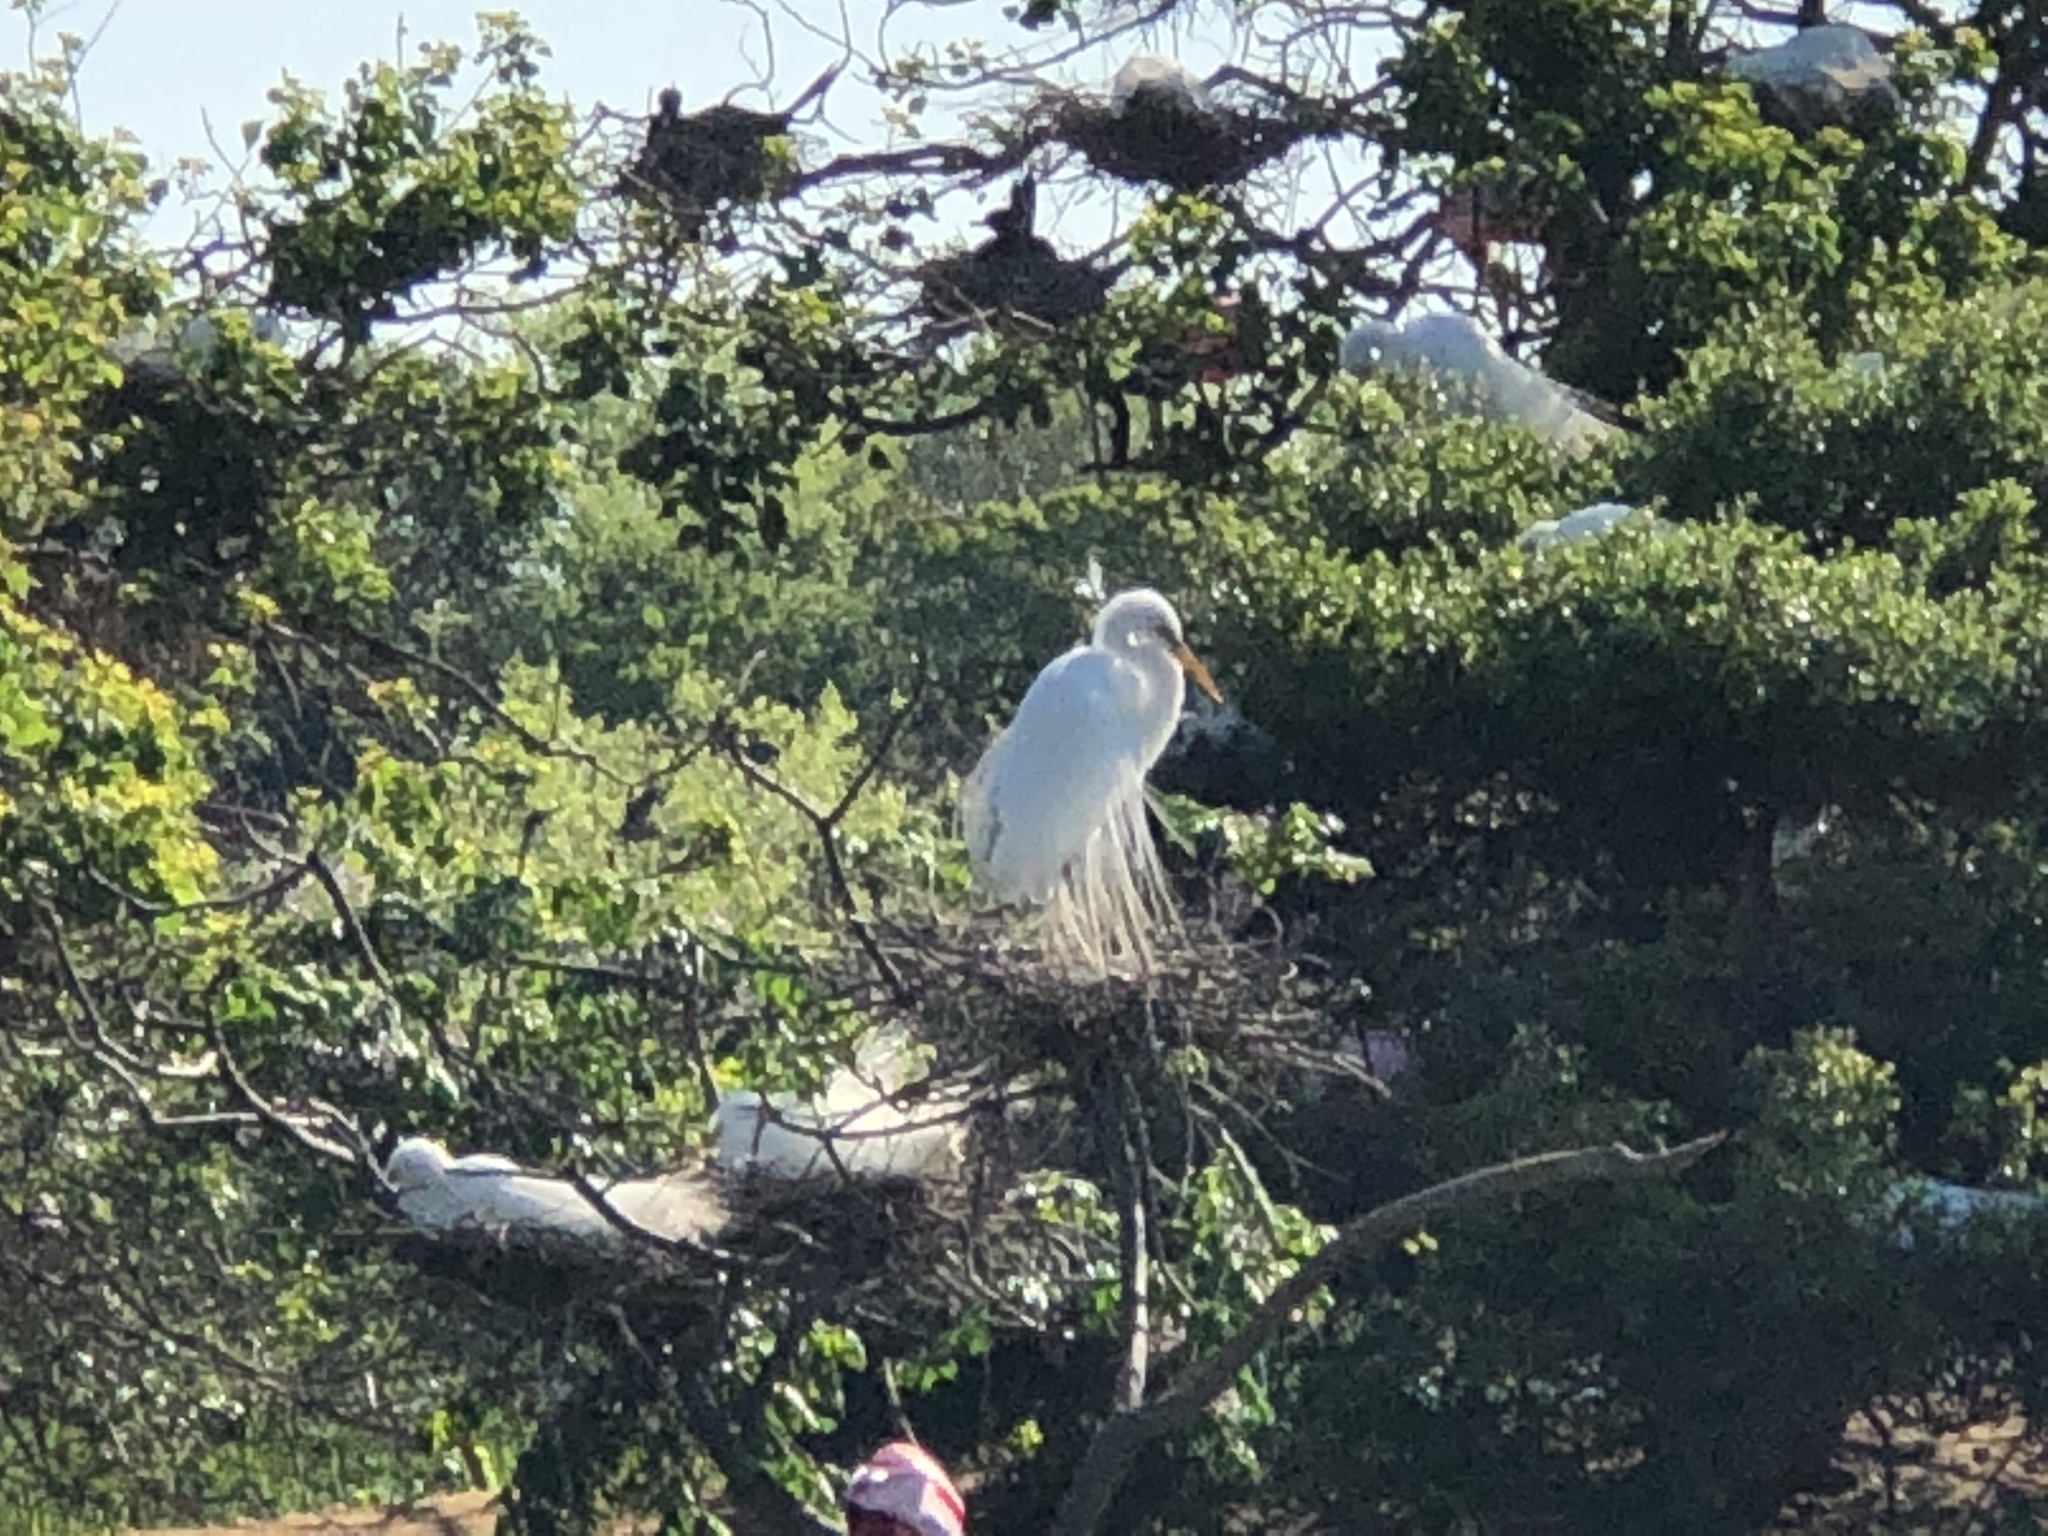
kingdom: Animalia
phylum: Chordata
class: Aves
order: Pelecaniformes
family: Ardeidae
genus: Ardea
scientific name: Ardea alba
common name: Great egret
